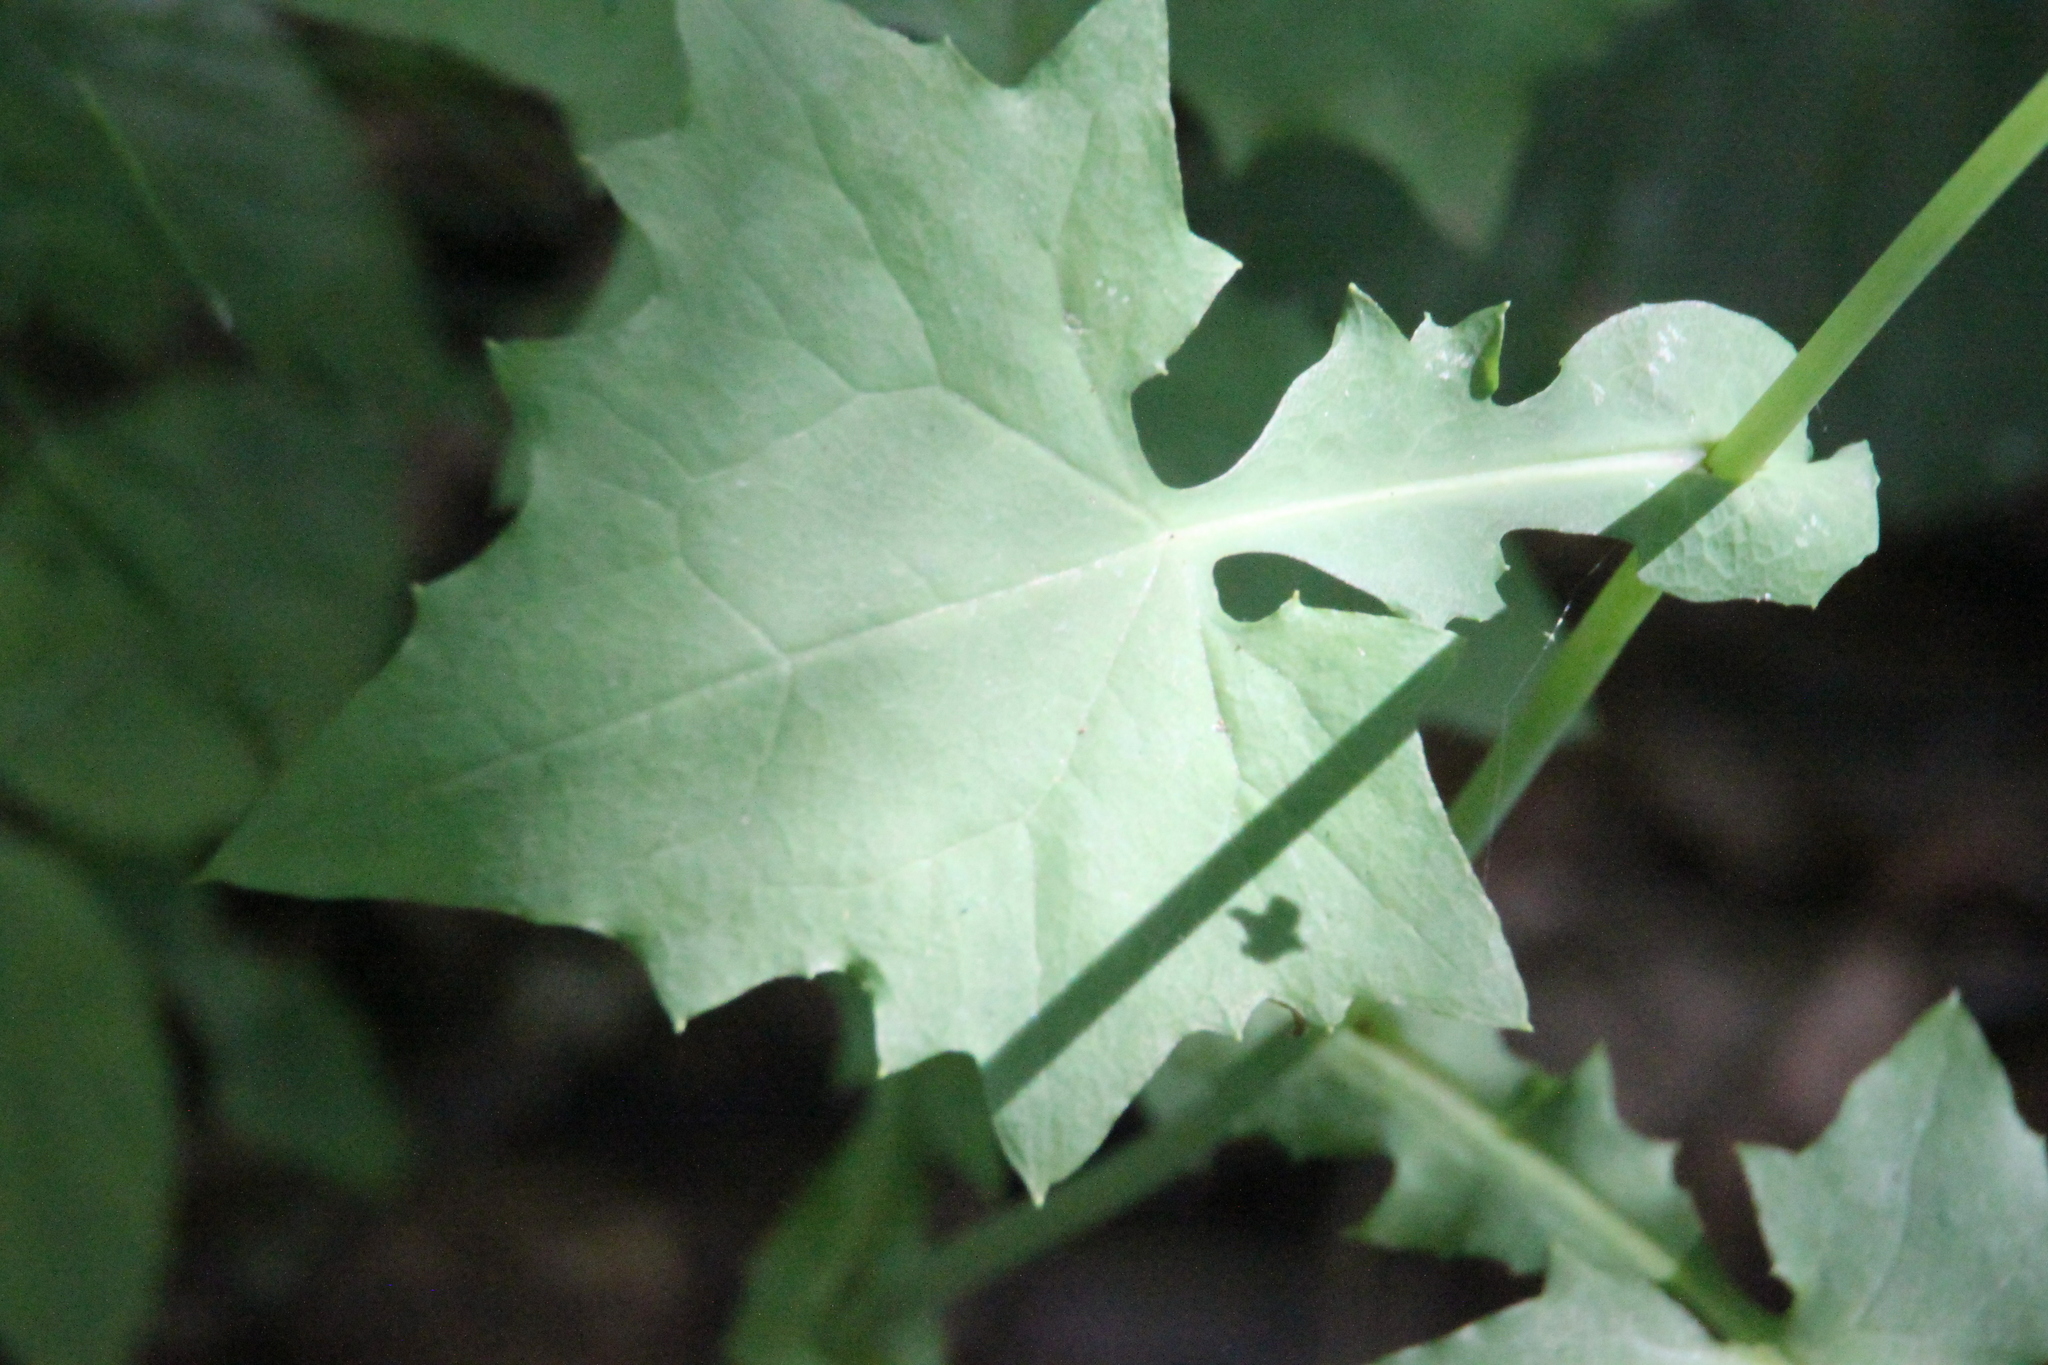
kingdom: Plantae
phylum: Tracheophyta
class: Magnoliopsida
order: Asterales
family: Asteraceae
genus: Mycelis
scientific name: Mycelis muralis
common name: Wall lettuce
